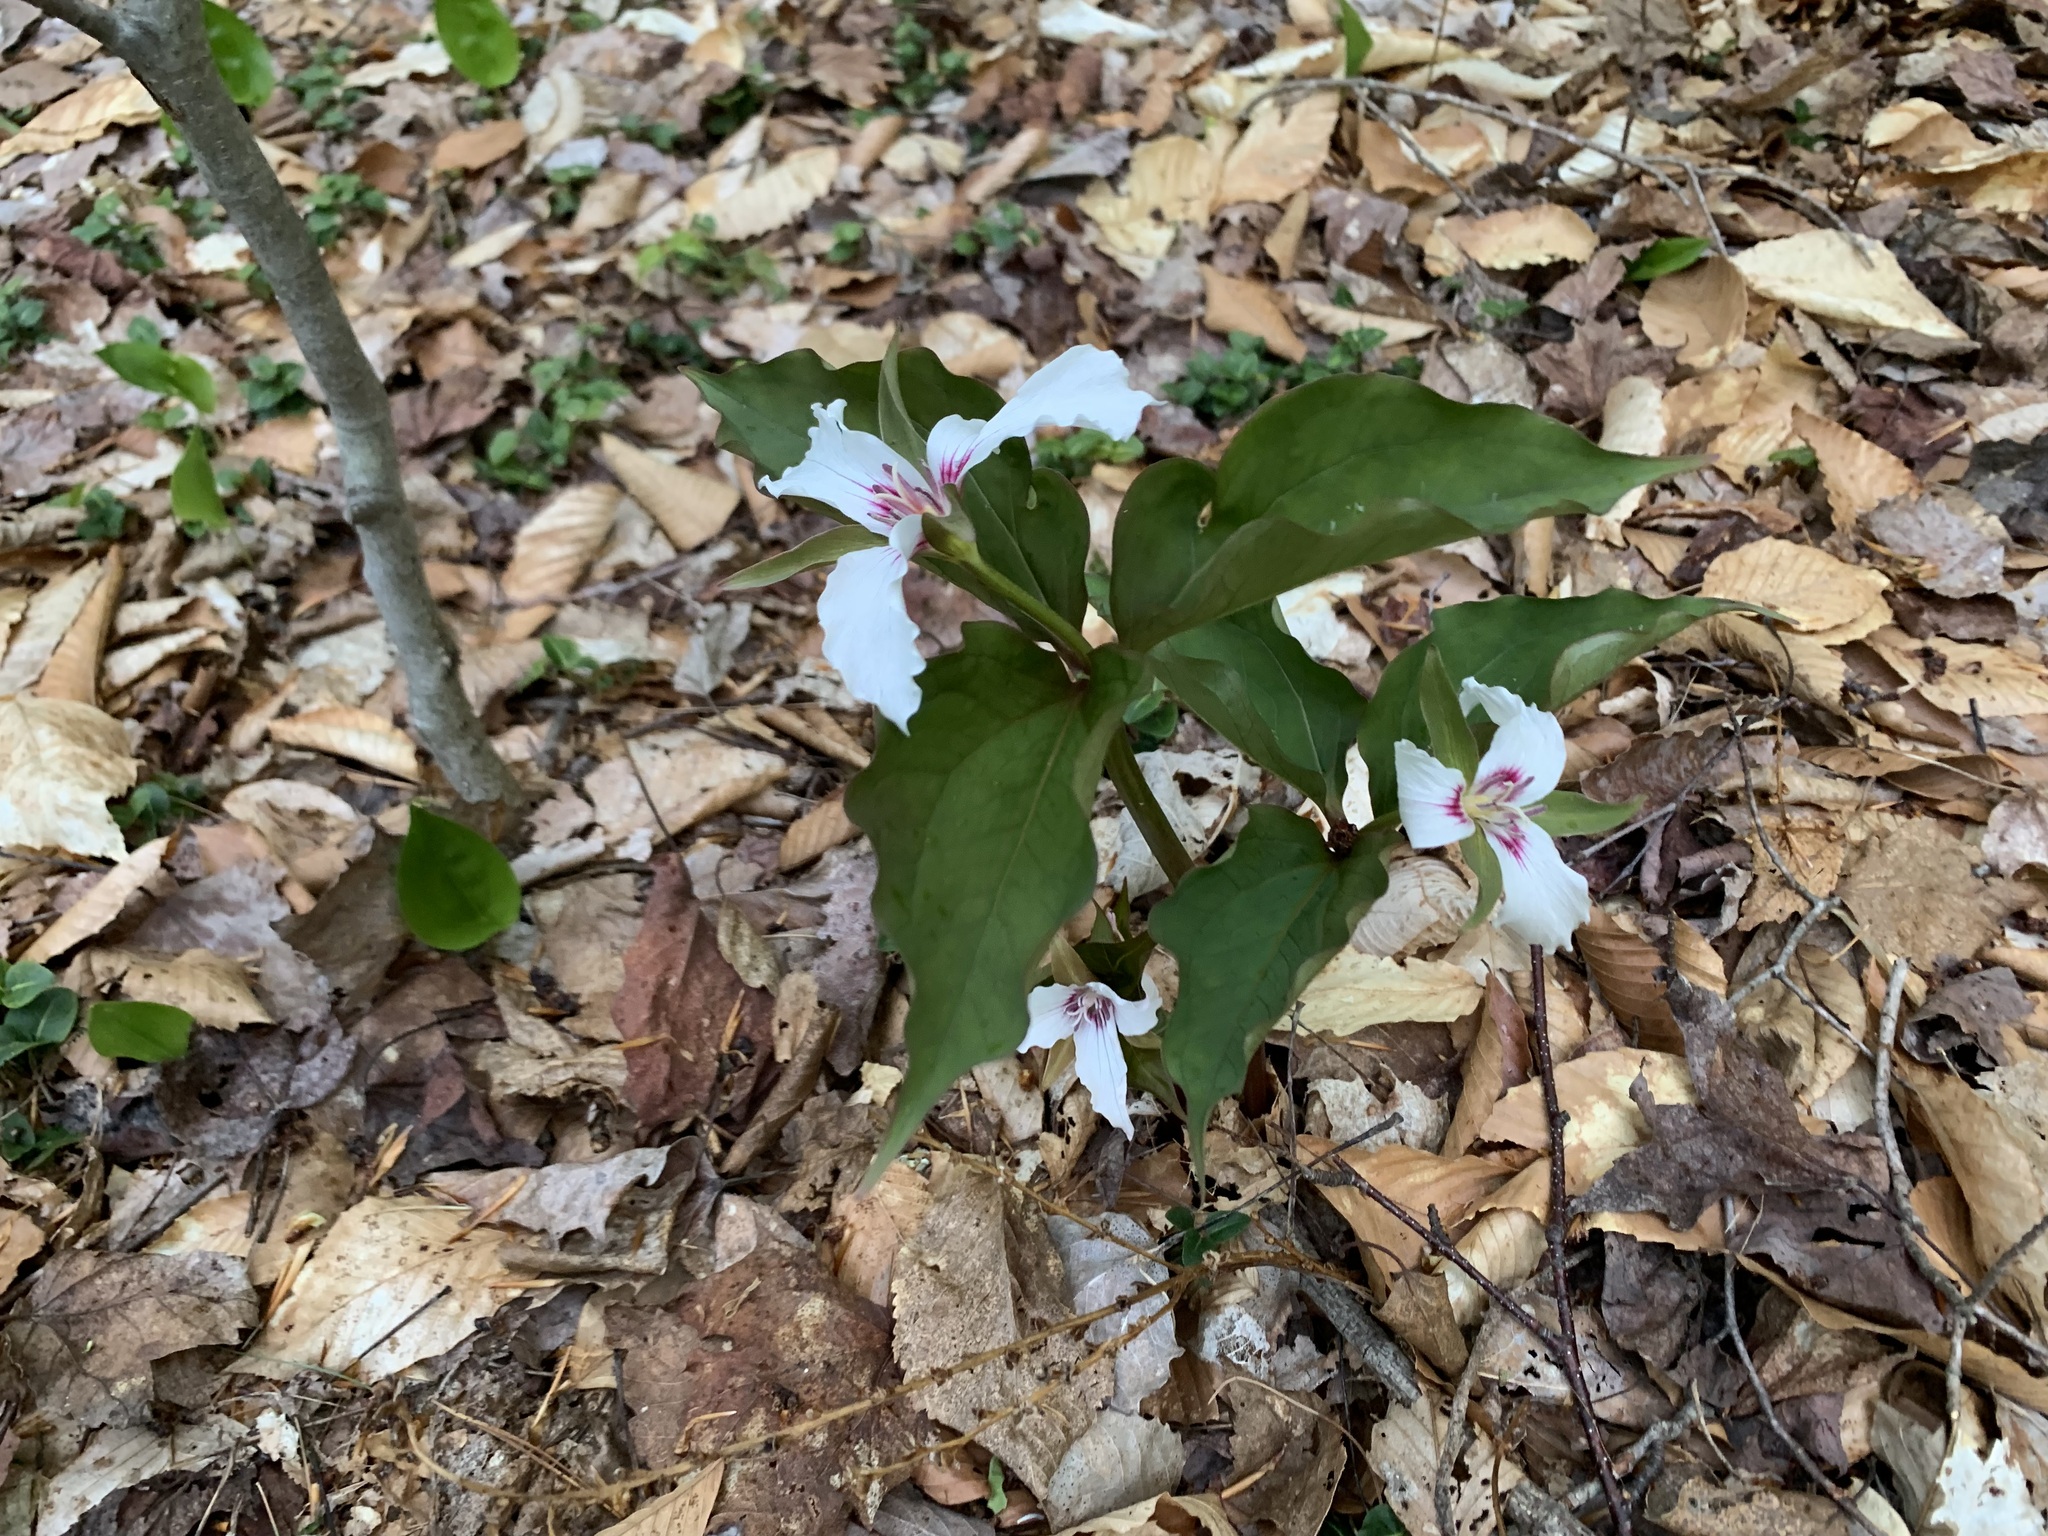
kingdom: Plantae
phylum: Tracheophyta
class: Liliopsida
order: Liliales
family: Melanthiaceae
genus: Trillium
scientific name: Trillium undulatum
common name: Paint trillium
